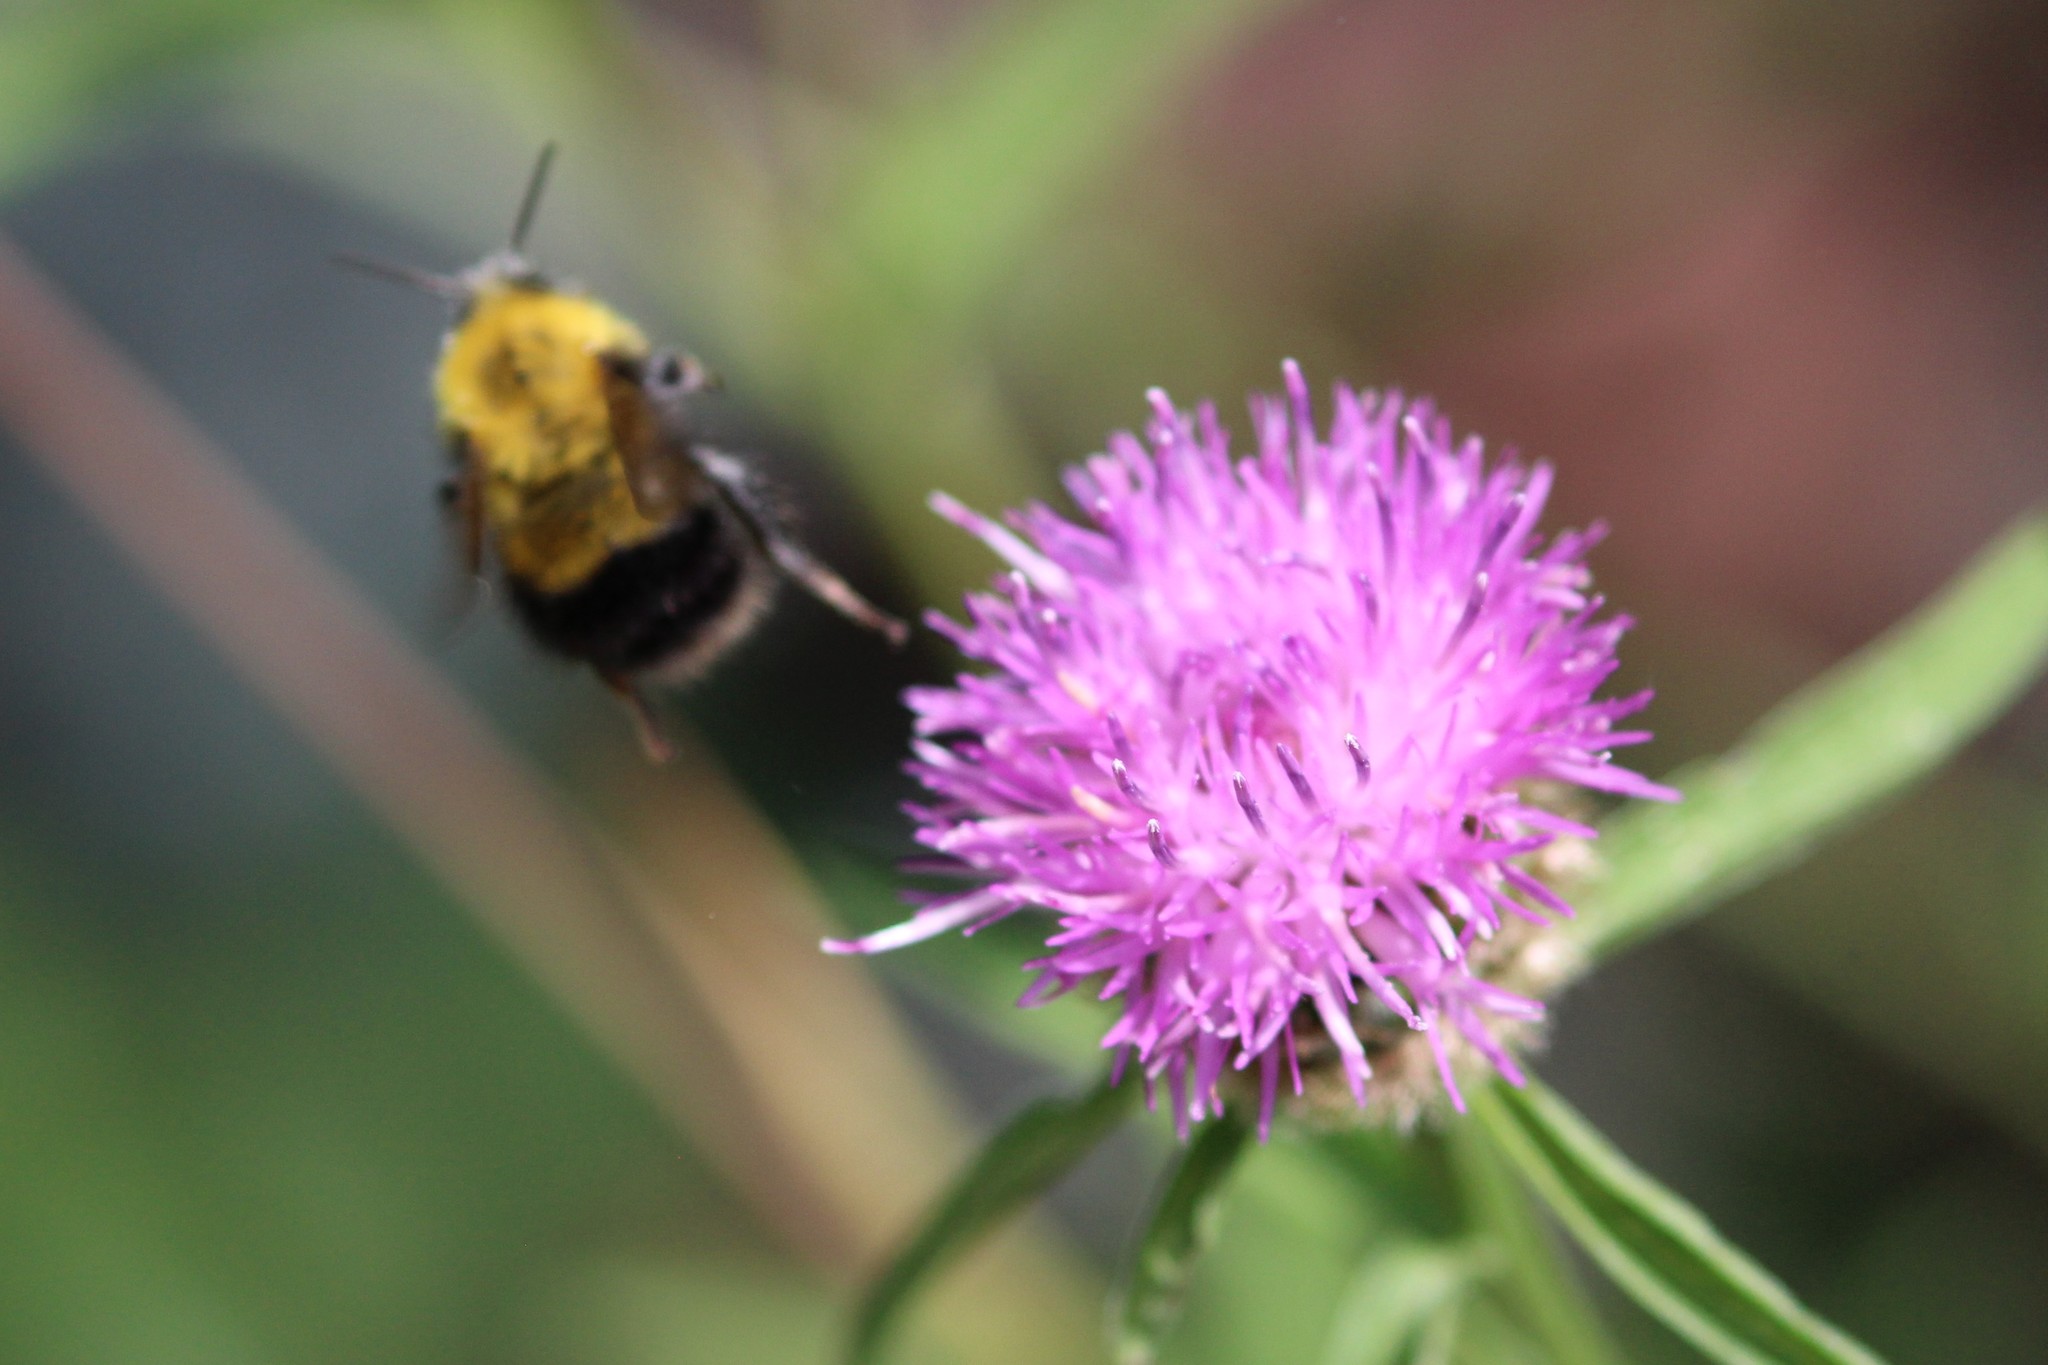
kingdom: Animalia
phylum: Arthropoda
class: Insecta
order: Hymenoptera
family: Apidae
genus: Bombus
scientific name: Bombus perplexus
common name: Confusing bumble bee
